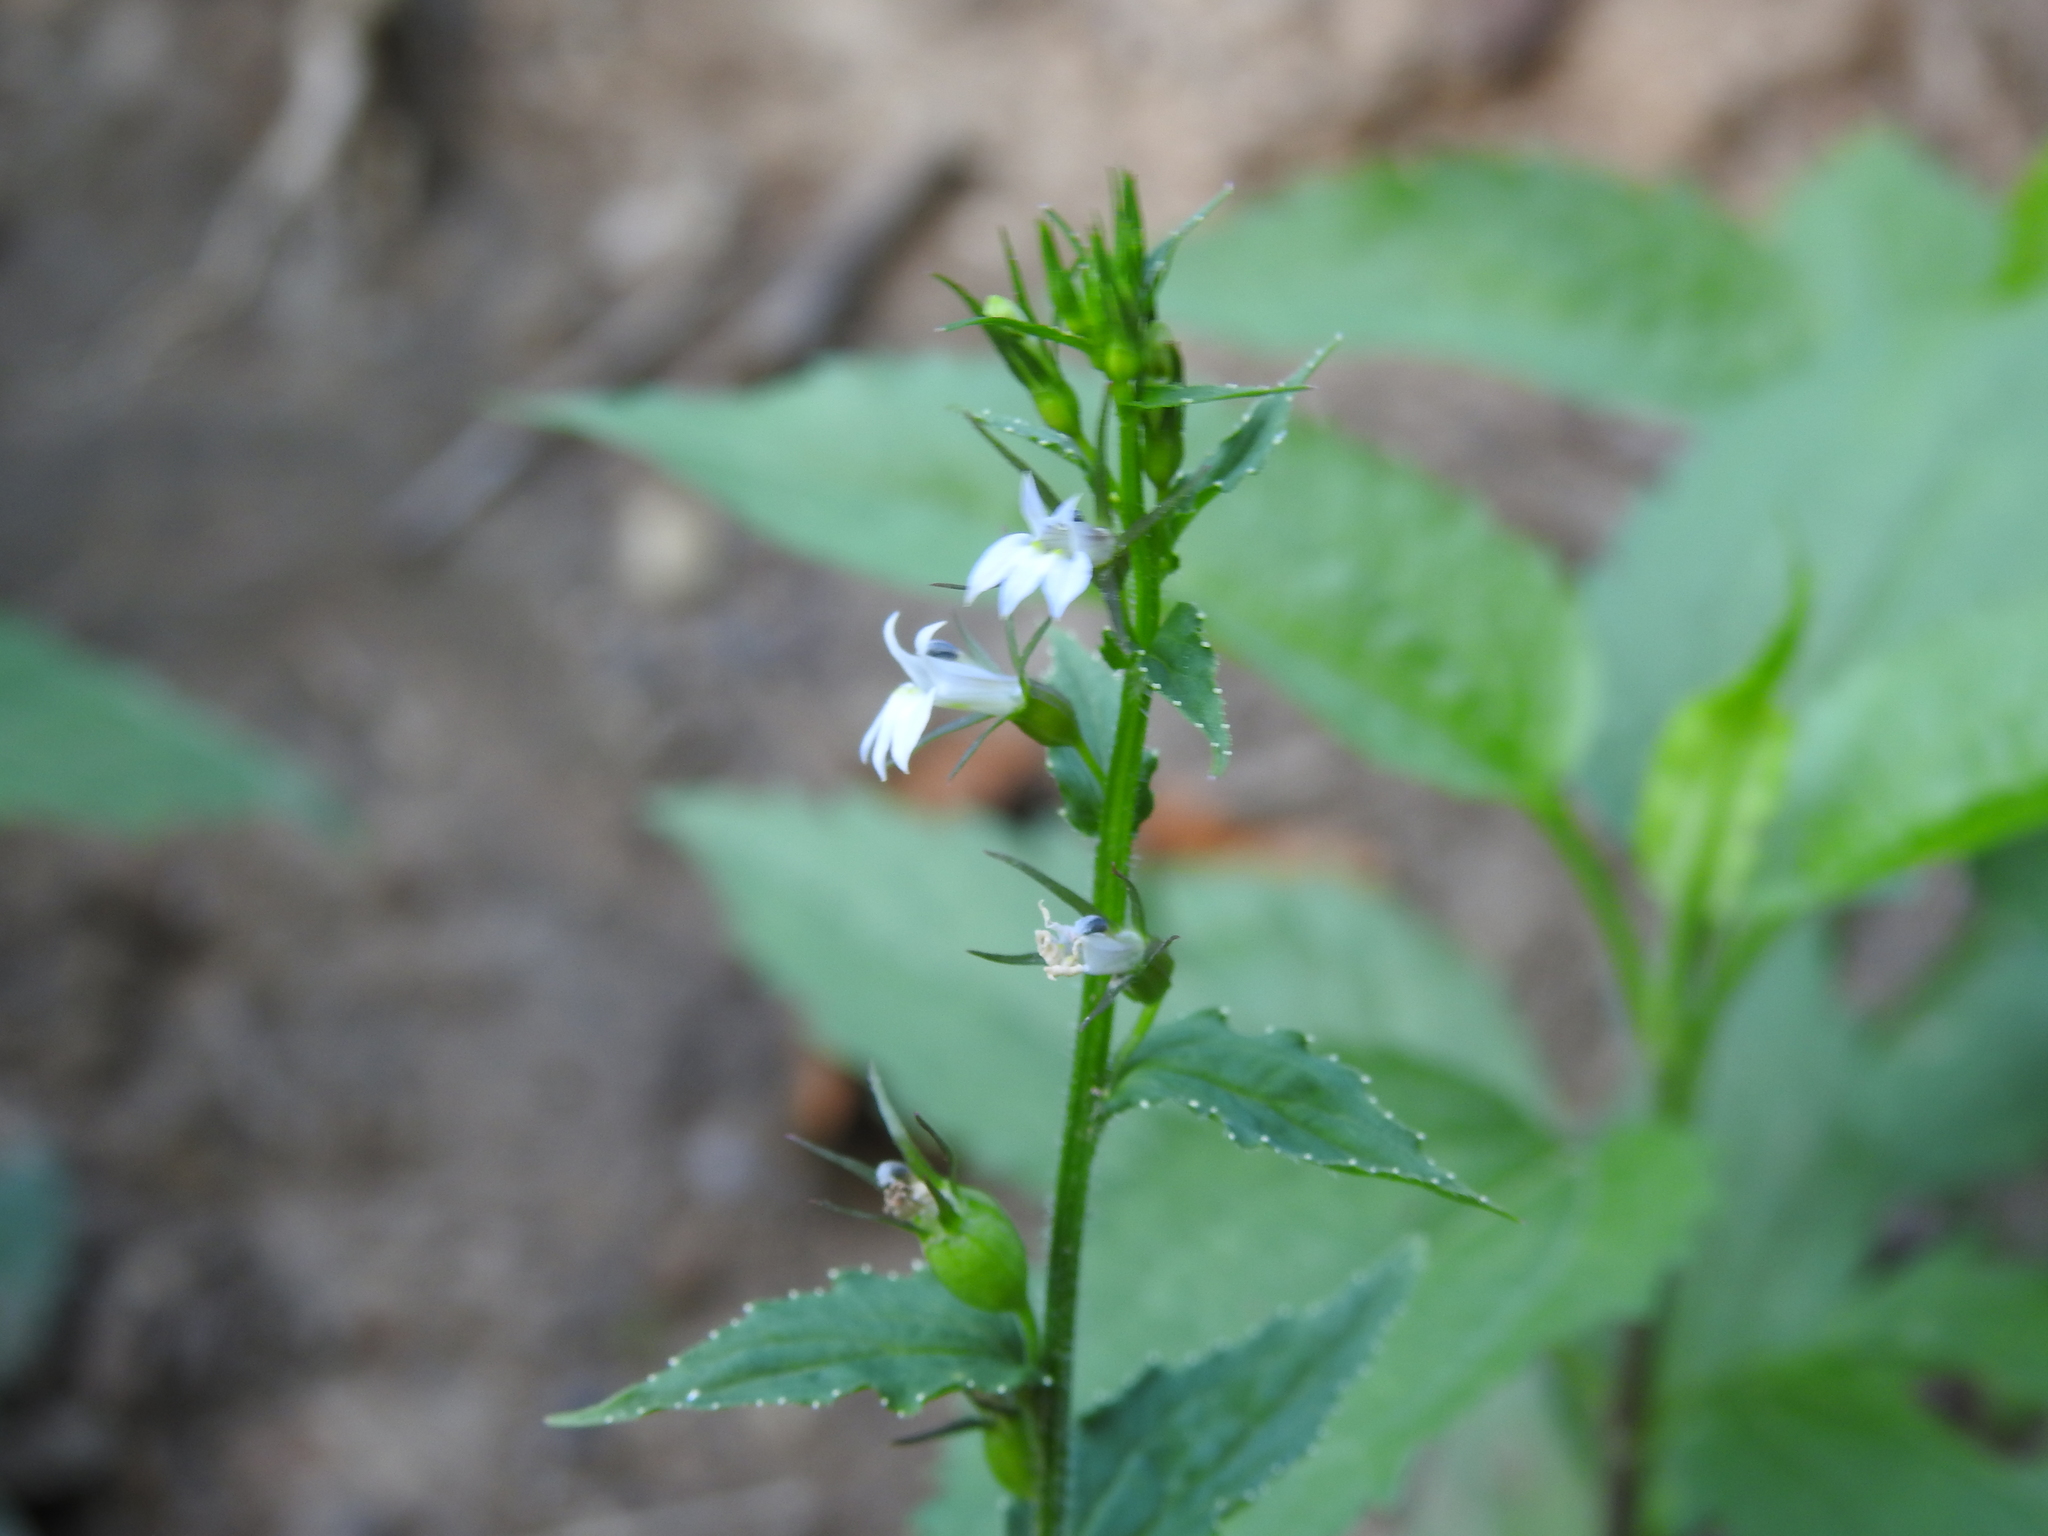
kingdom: Plantae
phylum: Tracheophyta
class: Magnoliopsida
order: Asterales
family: Campanulaceae
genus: Lobelia
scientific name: Lobelia inflata
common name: Indian tobacco
